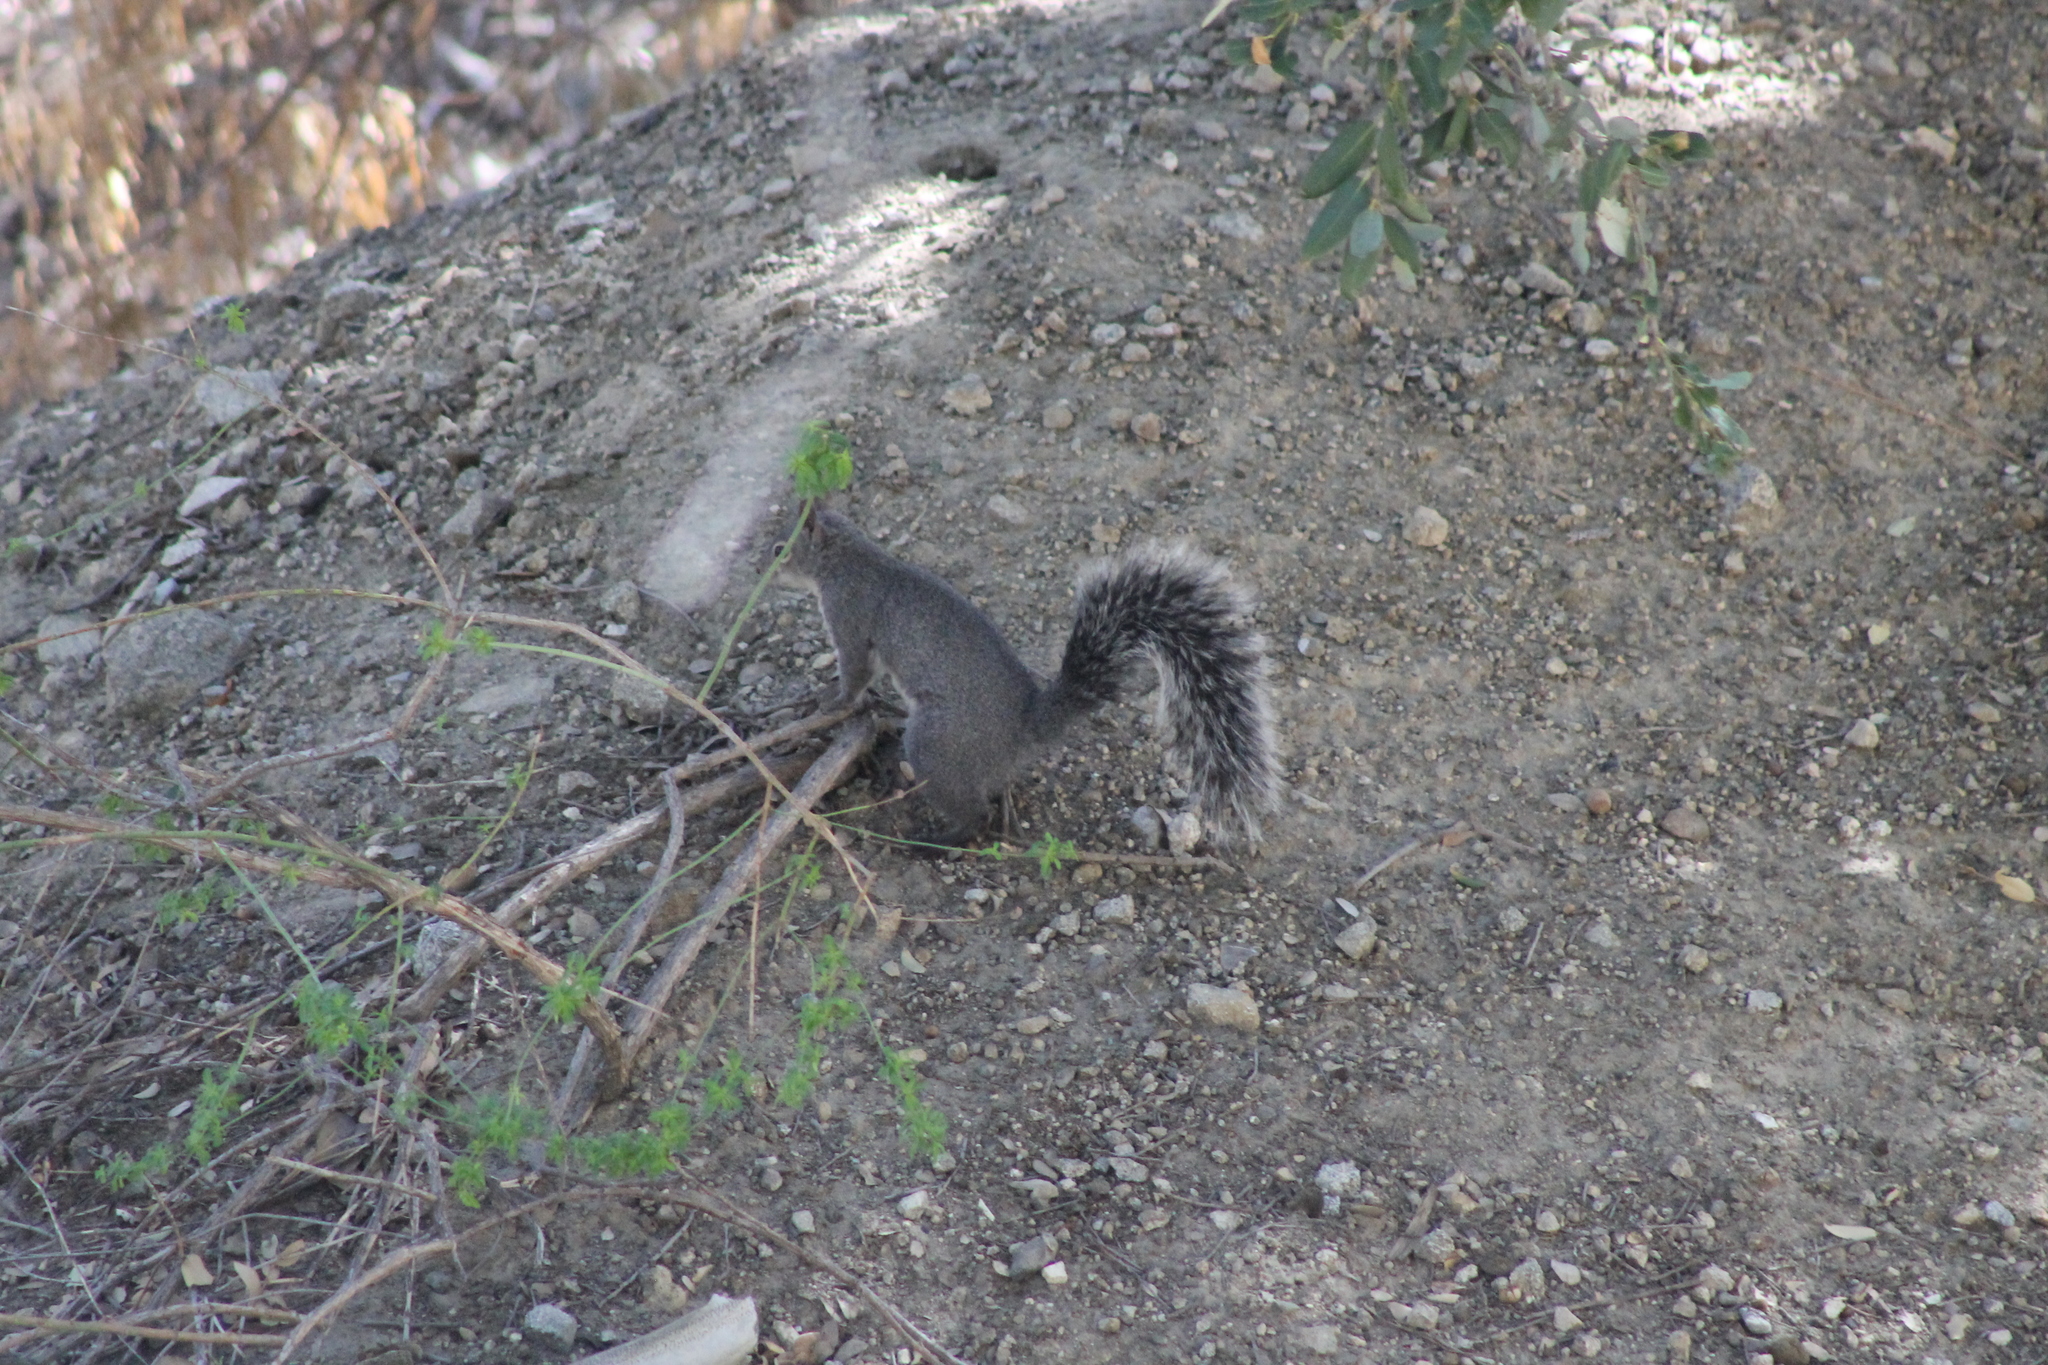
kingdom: Animalia
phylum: Chordata
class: Mammalia
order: Rodentia
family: Sciuridae
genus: Sciurus
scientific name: Sciurus griseus
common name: Western gray squirrel
